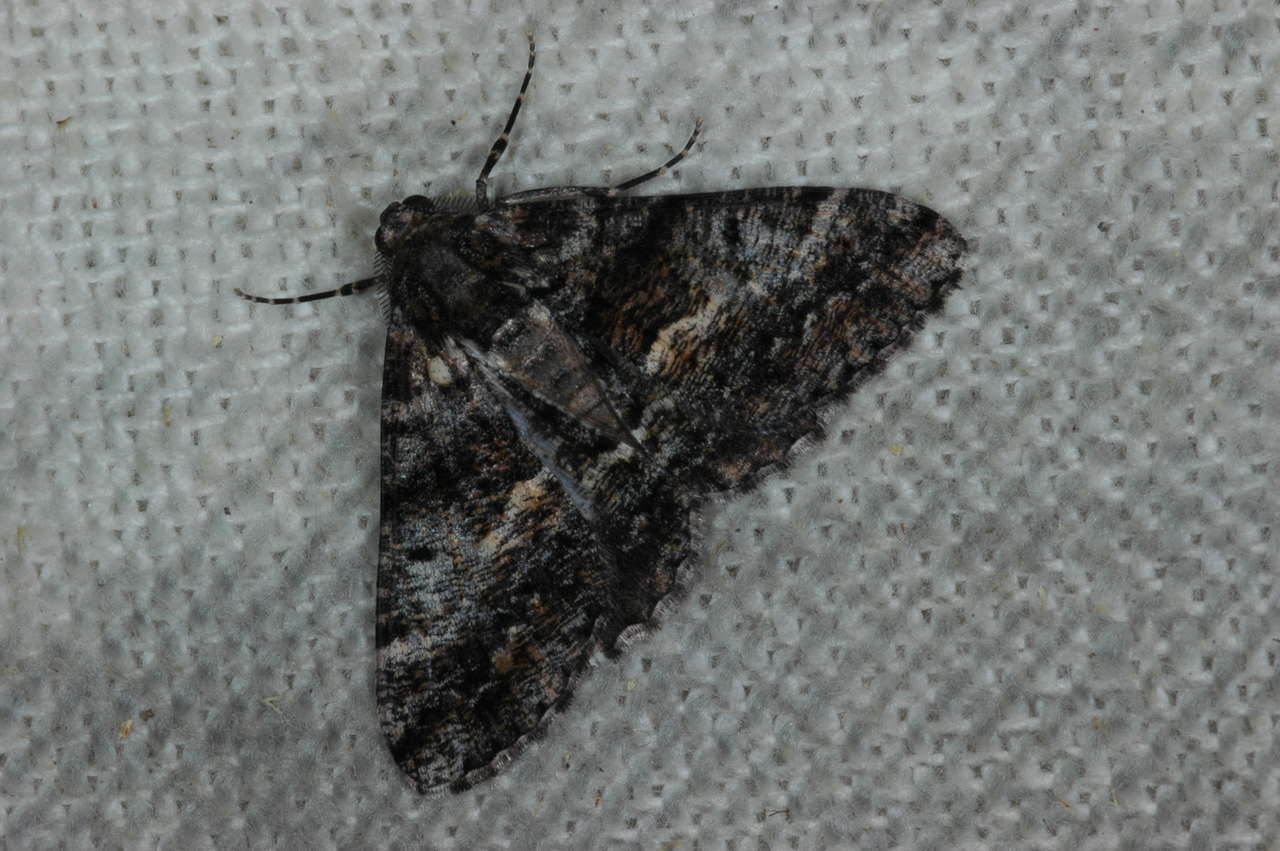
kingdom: Animalia
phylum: Arthropoda
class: Insecta
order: Lepidoptera
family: Geometridae
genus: Gastrinodes
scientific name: Gastrinodes argoplaca
